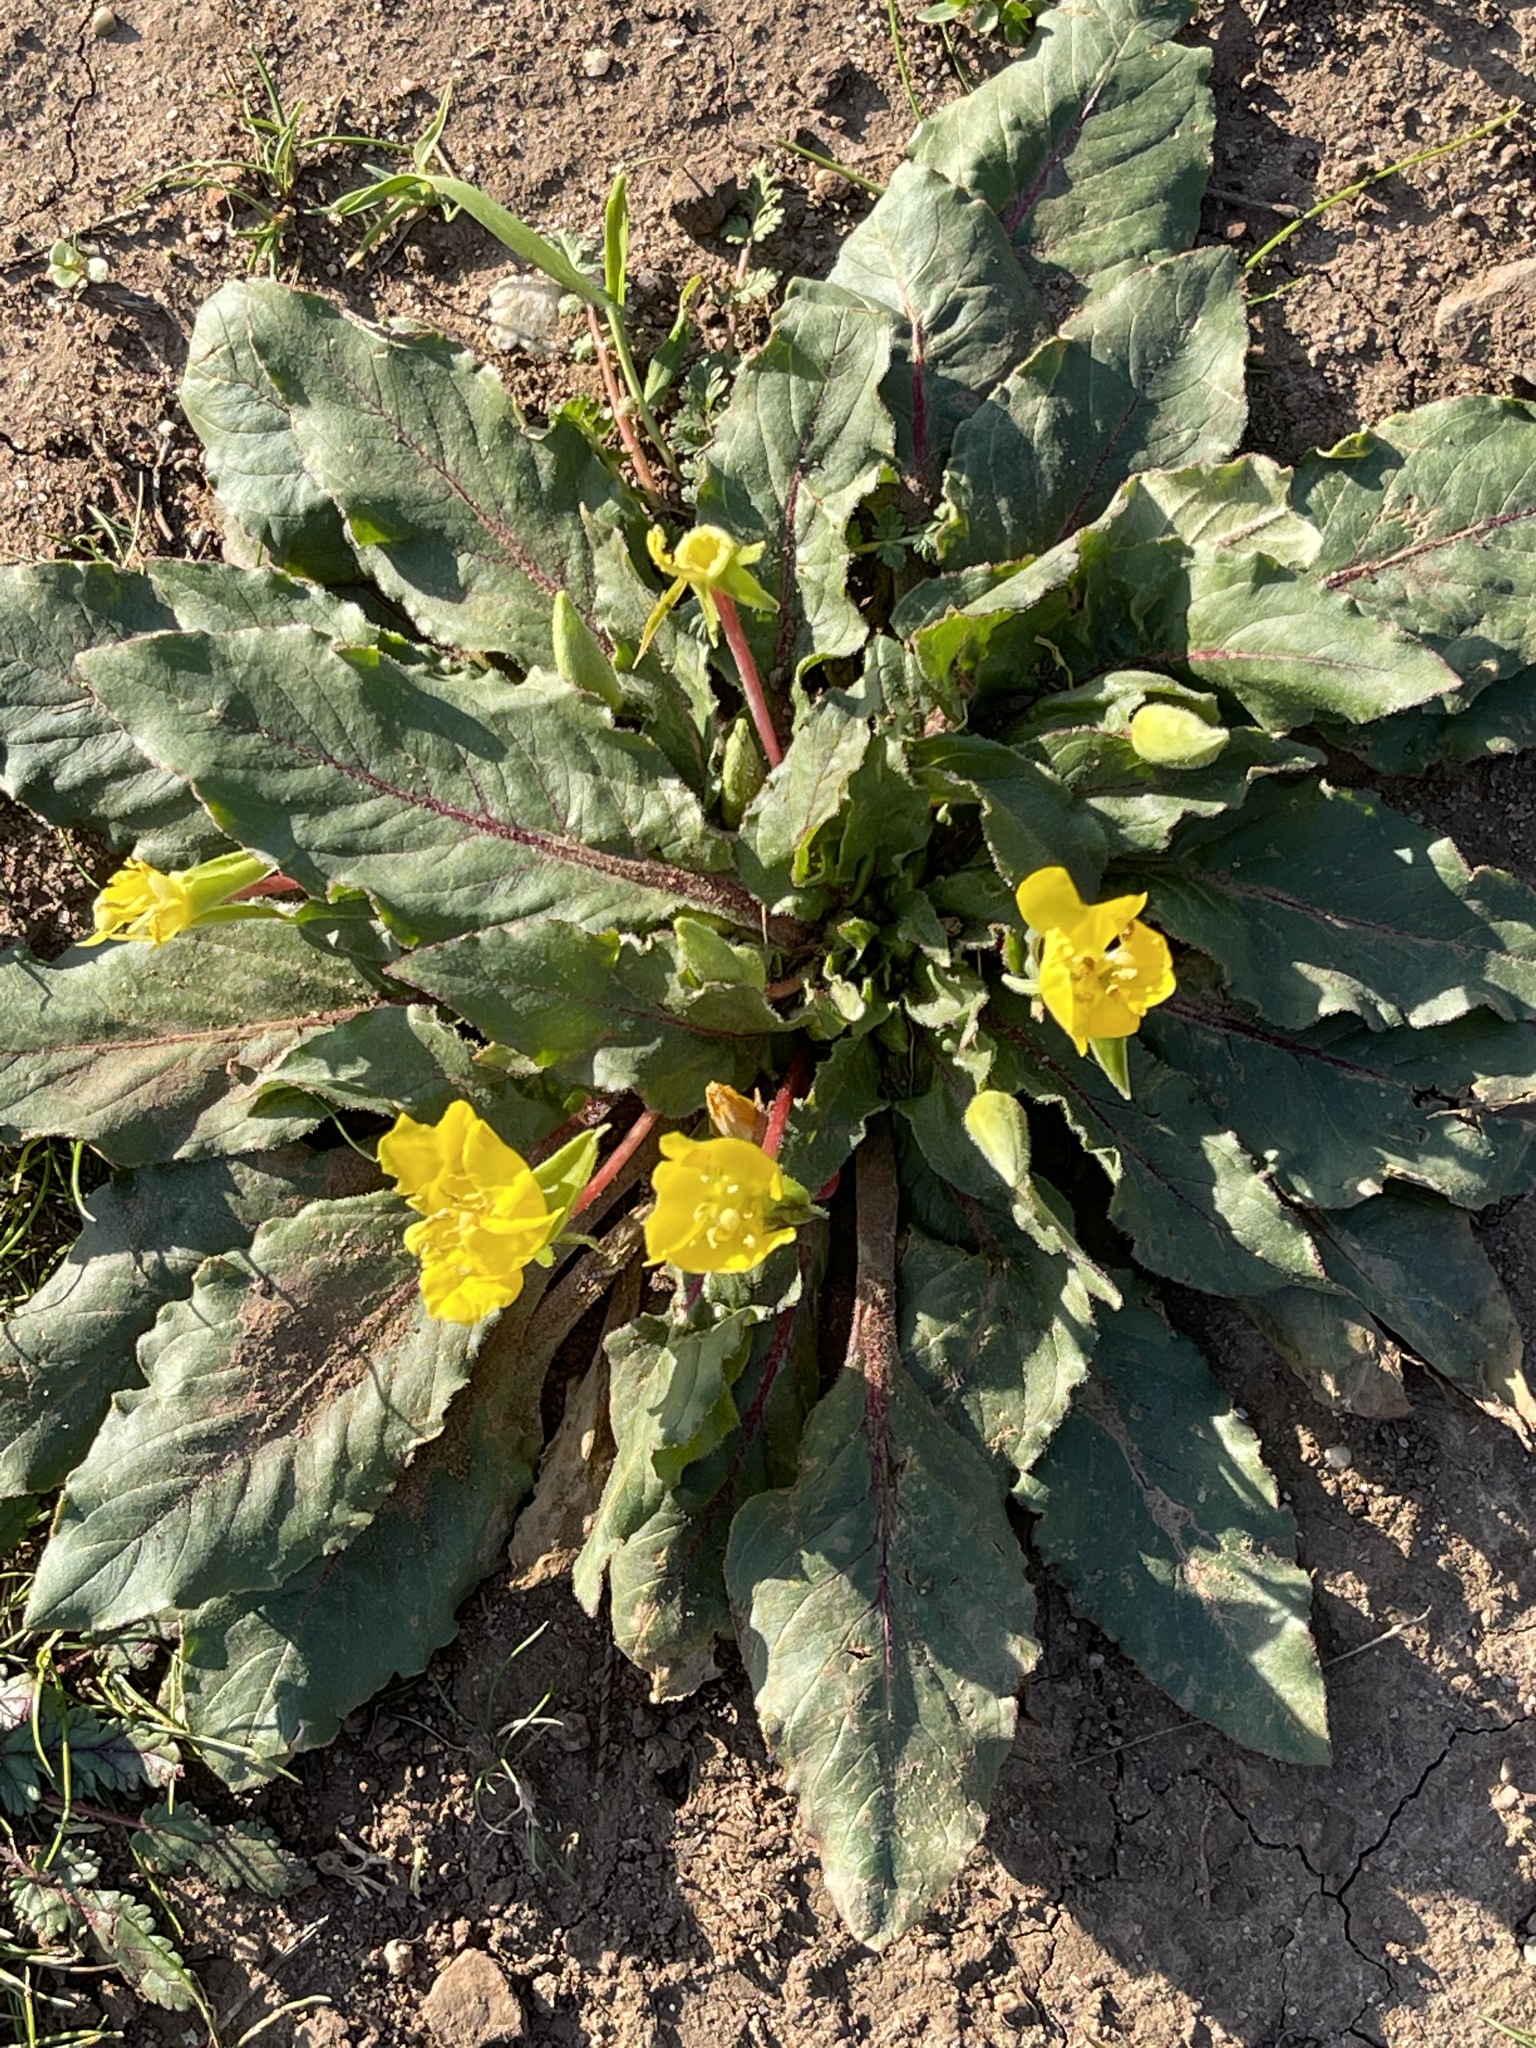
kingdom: Plantae
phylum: Tracheophyta
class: Magnoliopsida
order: Myrtales
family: Onagraceae
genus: Taraxia
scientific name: Taraxia ovata
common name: Goldeneggs
